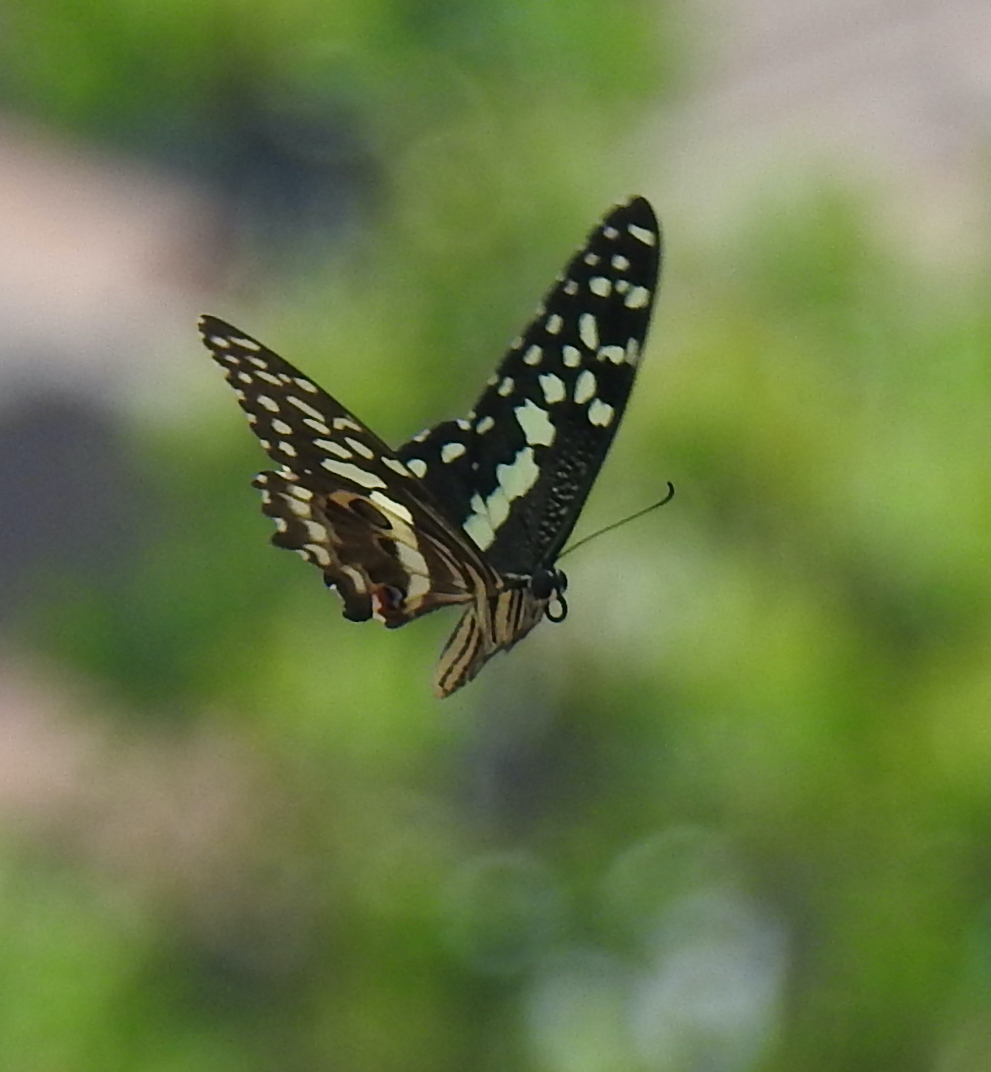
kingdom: Animalia
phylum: Arthropoda
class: Insecta
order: Lepidoptera
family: Papilionidae
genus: Papilio
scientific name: Papilio demodocus
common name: Christmas butterfly
